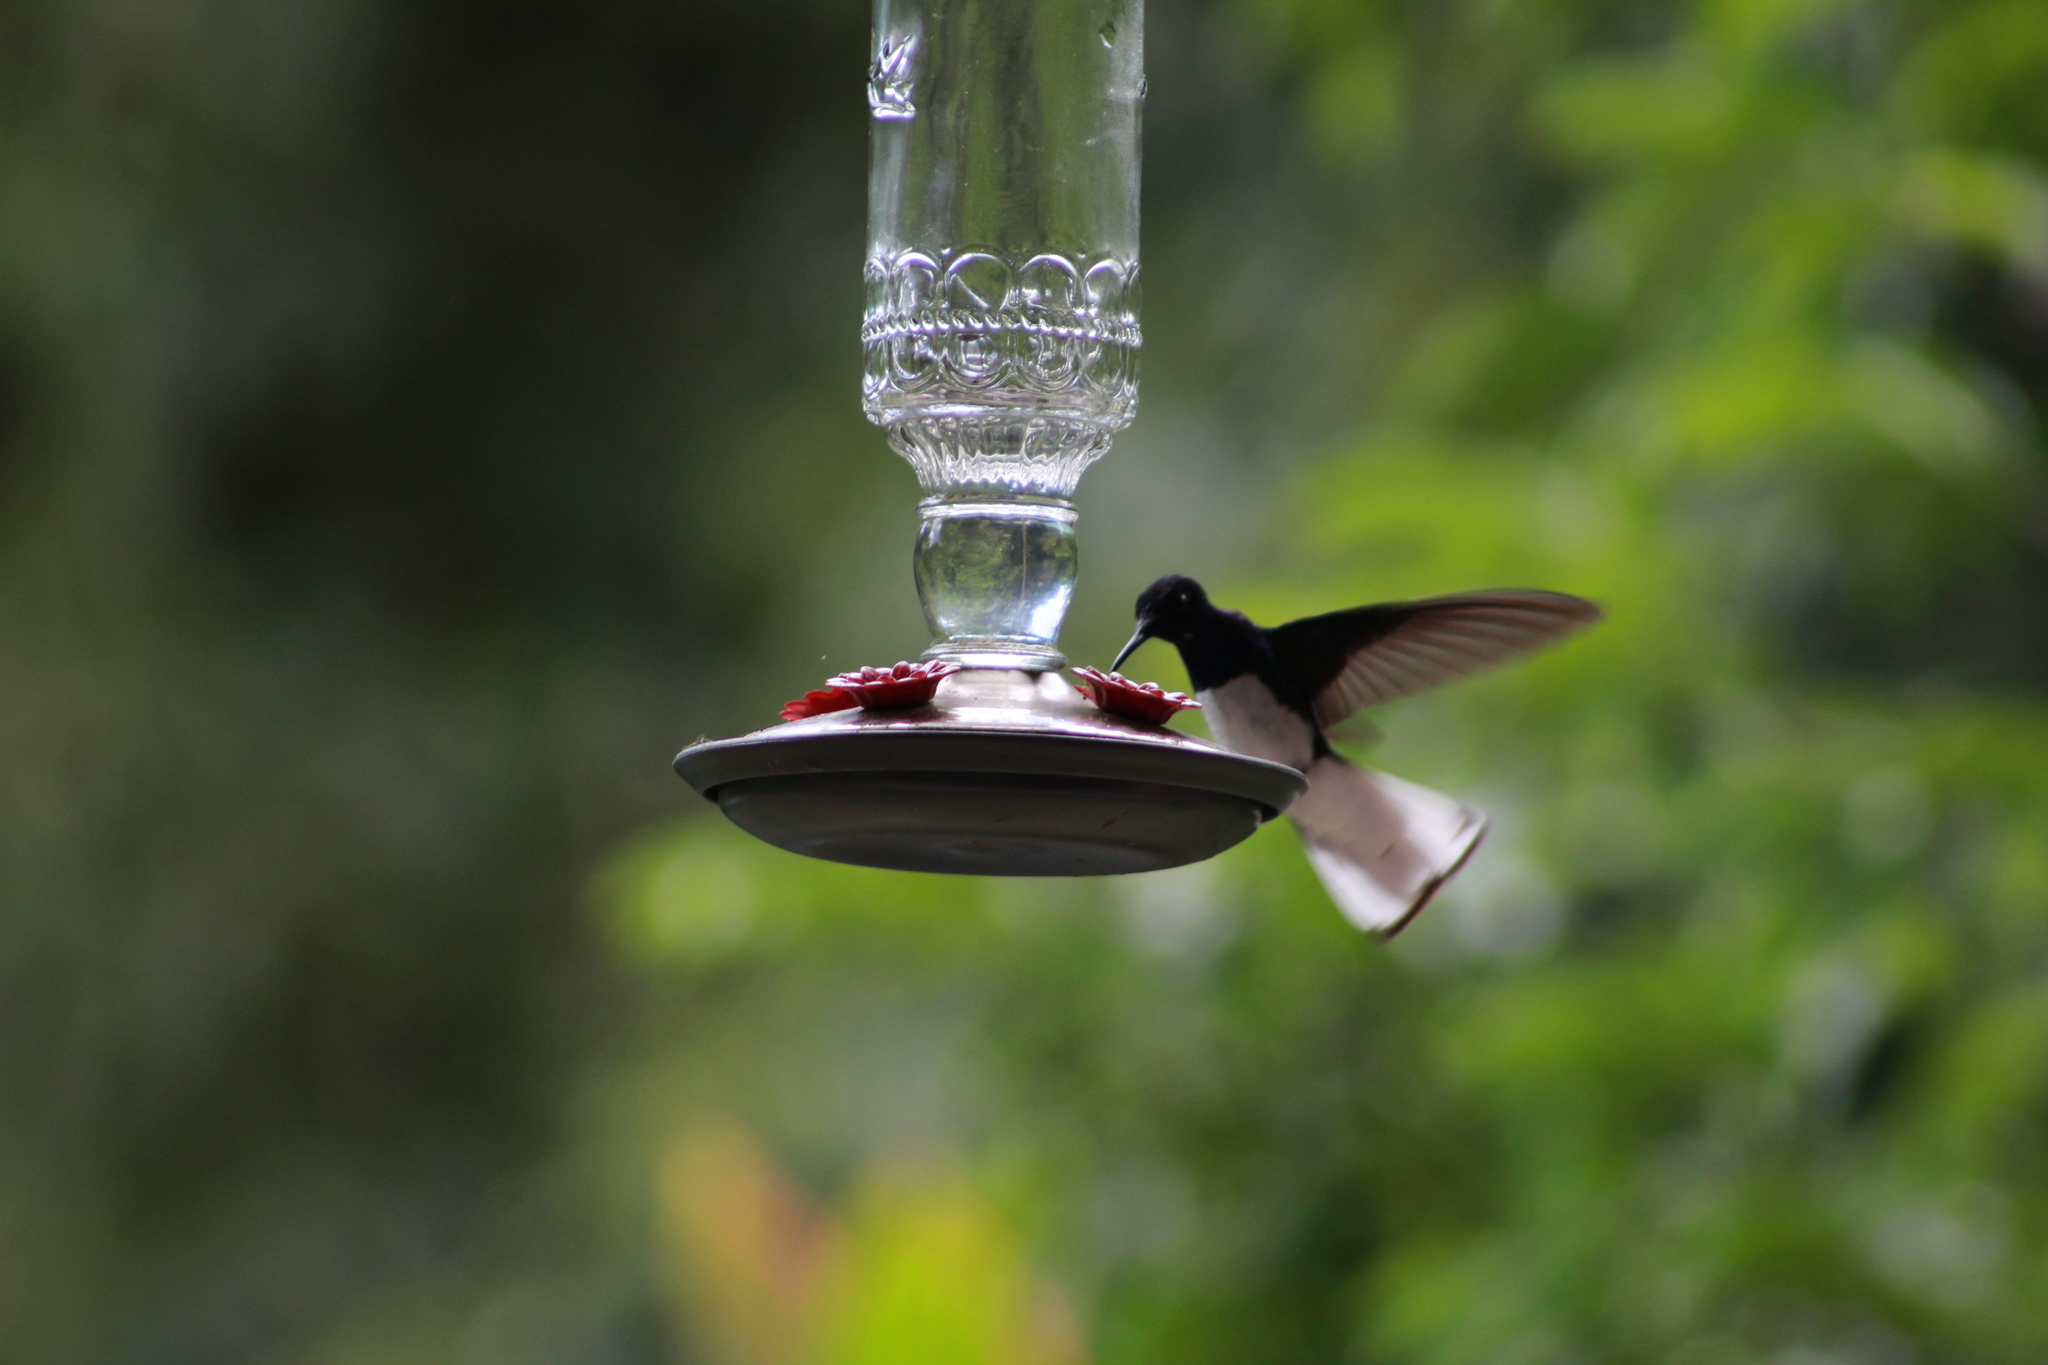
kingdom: Animalia
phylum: Chordata
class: Aves
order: Apodiformes
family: Trochilidae
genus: Florisuga
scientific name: Florisuga mellivora
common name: White-necked jacobin
